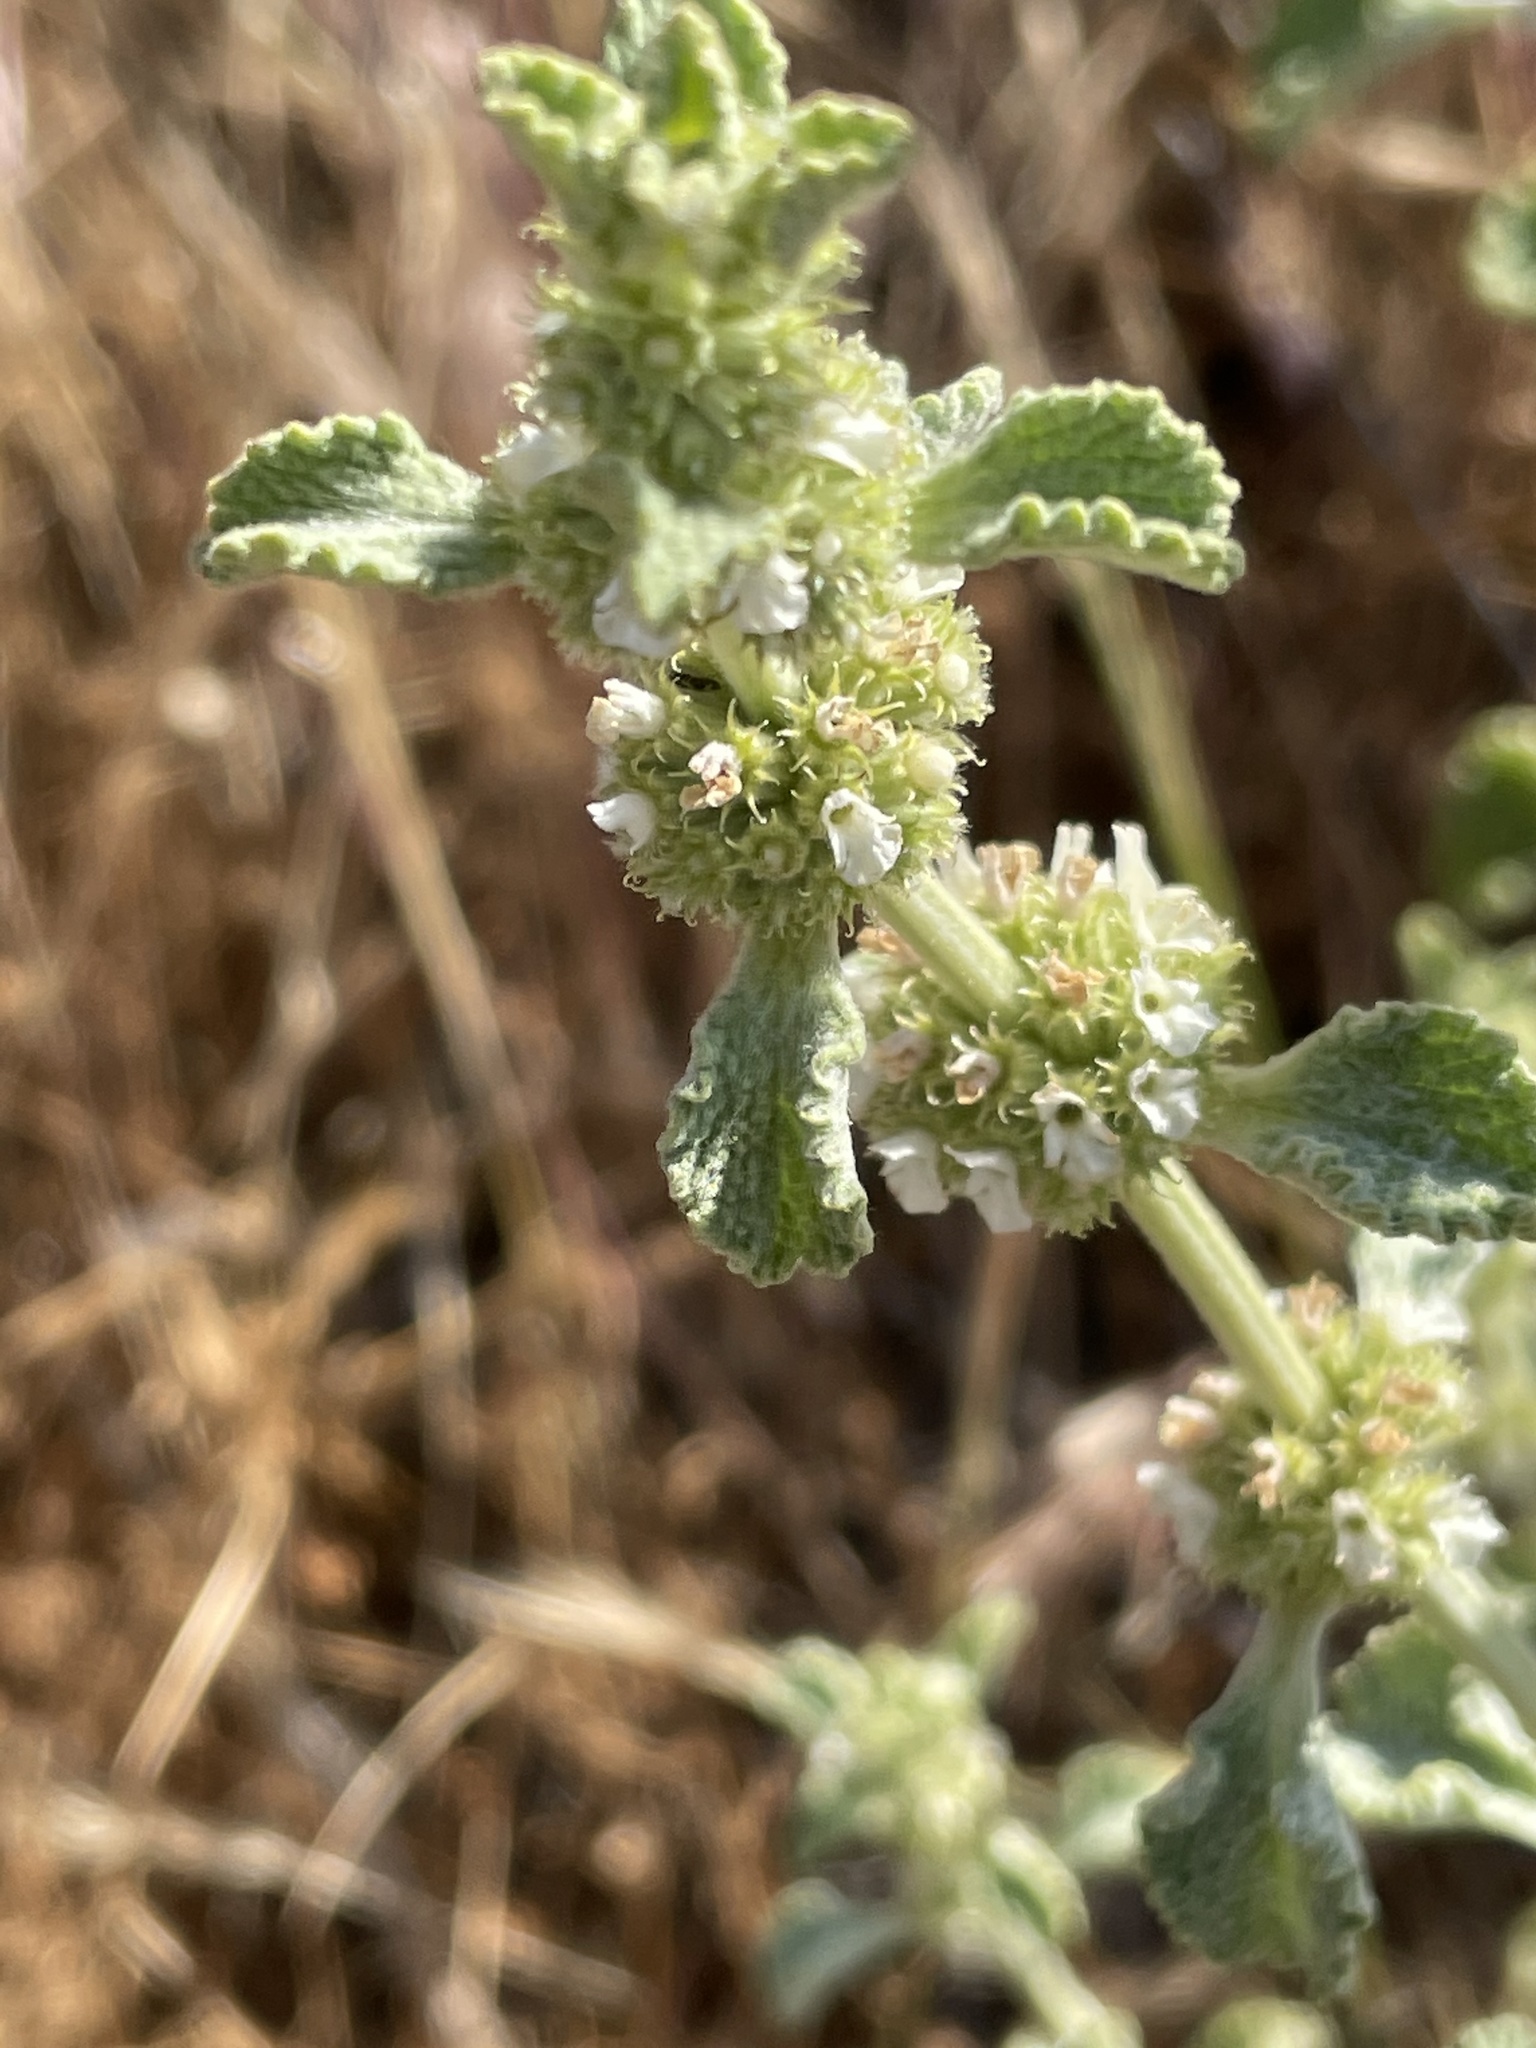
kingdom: Plantae
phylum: Tracheophyta
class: Magnoliopsida
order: Lamiales
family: Lamiaceae
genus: Marrubium
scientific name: Marrubium vulgare
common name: Horehound
